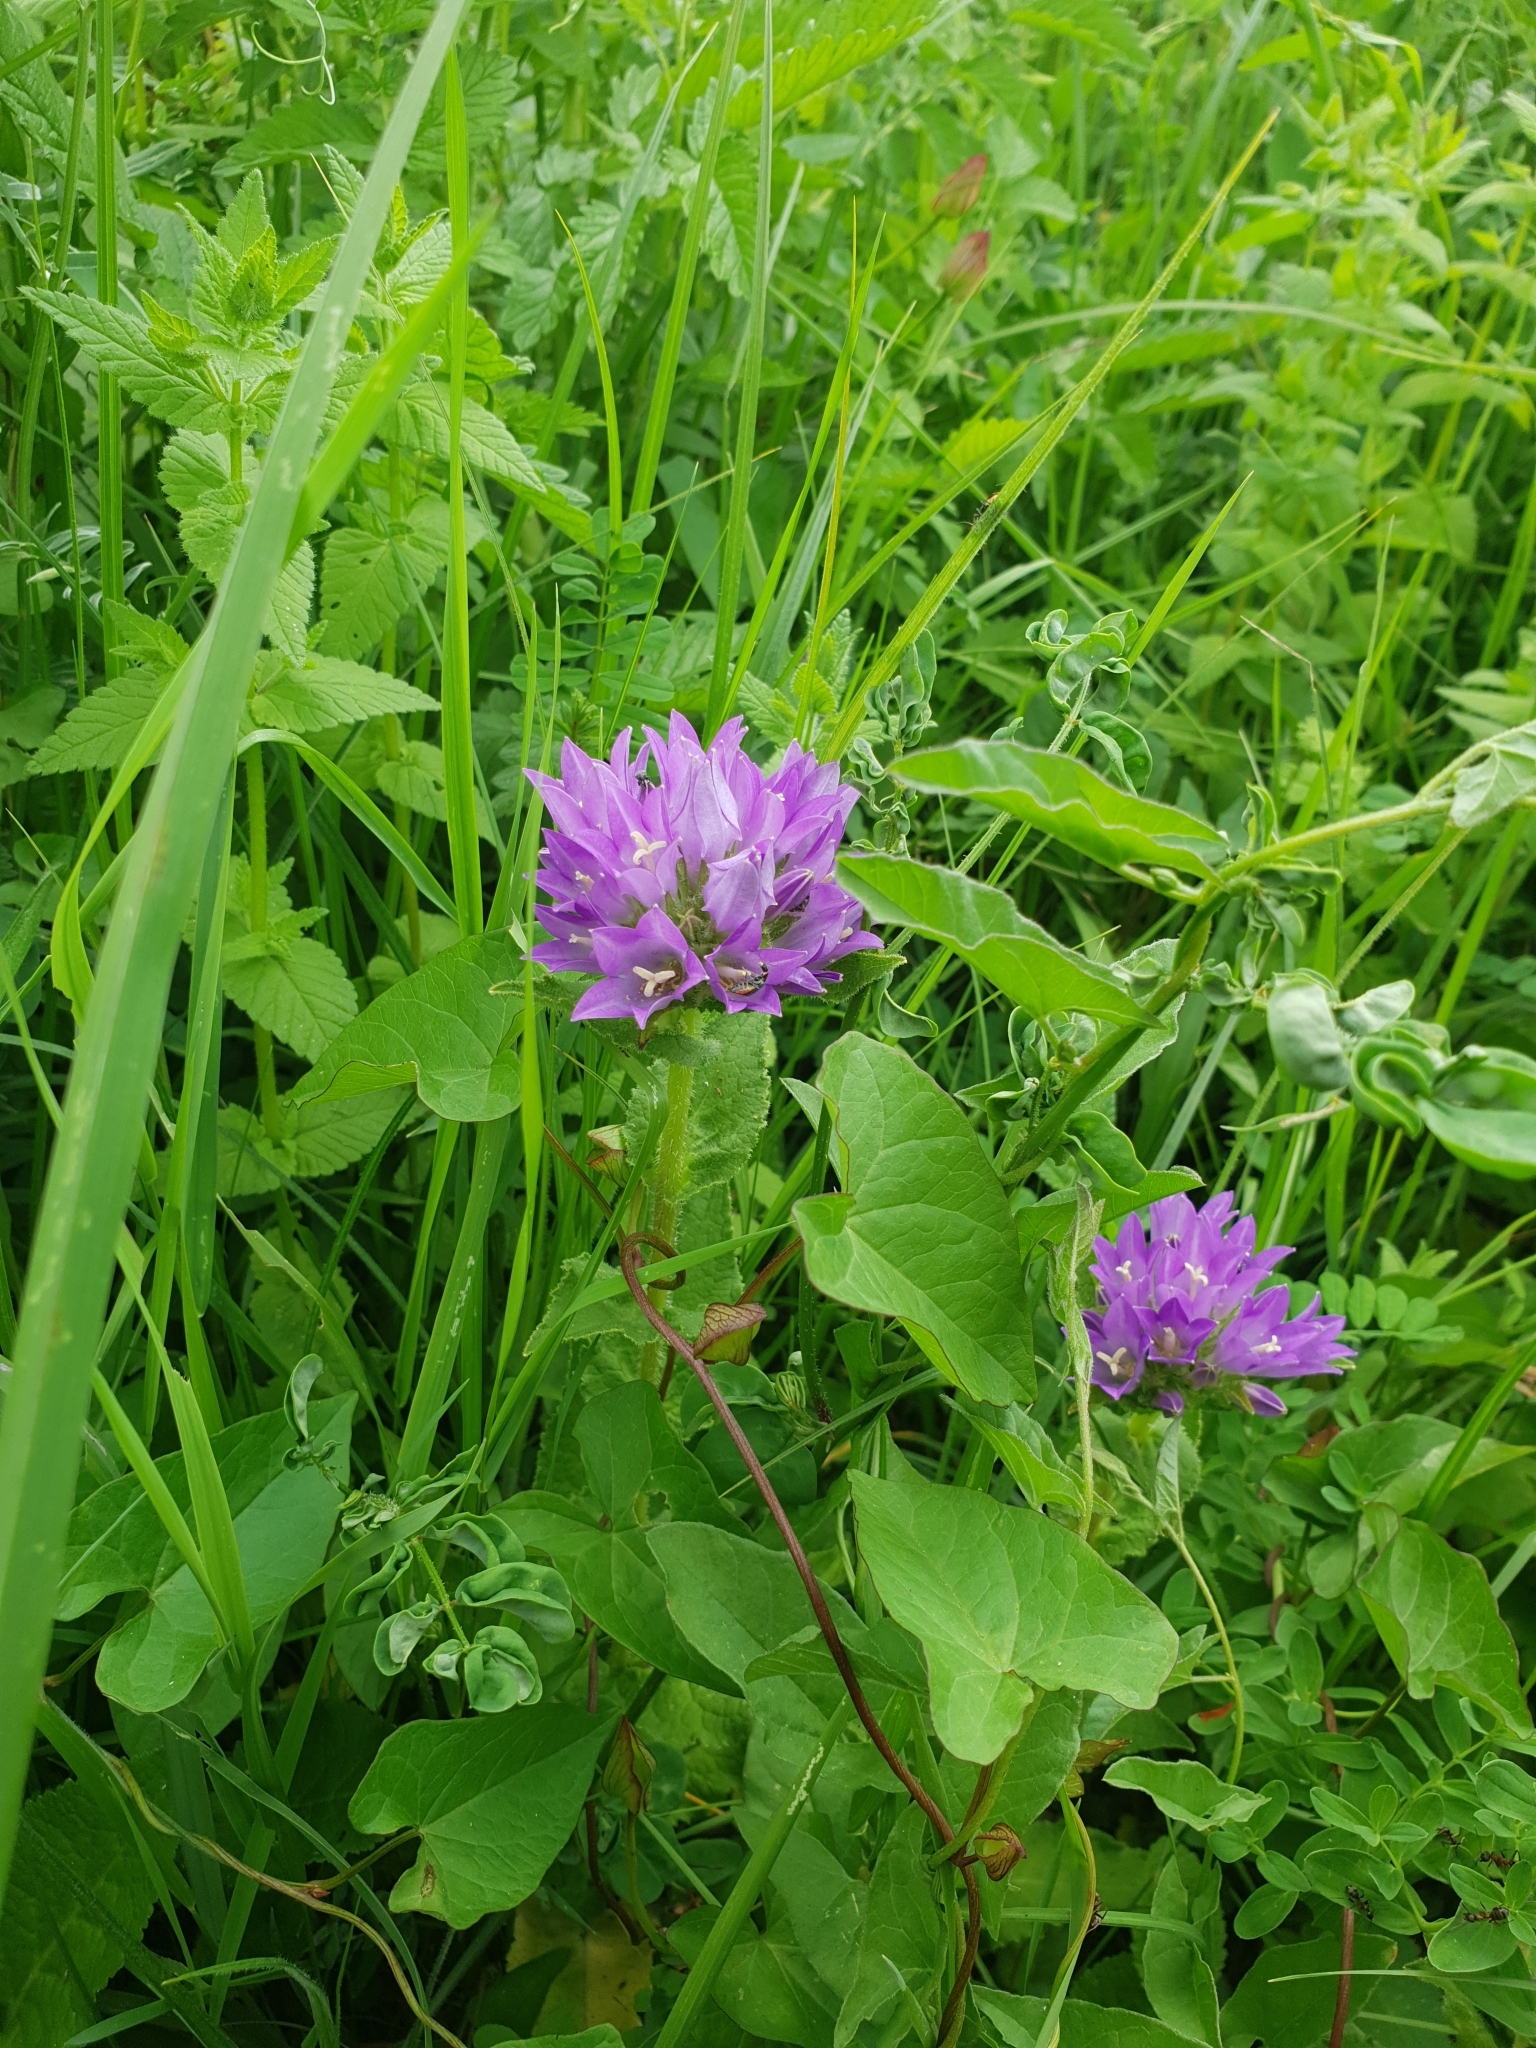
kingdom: Plantae
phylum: Tracheophyta
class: Magnoliopsida
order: Asterales
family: Campanulaceae
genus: Campanula
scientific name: Campanula glomerata
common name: Clustered bellflower
